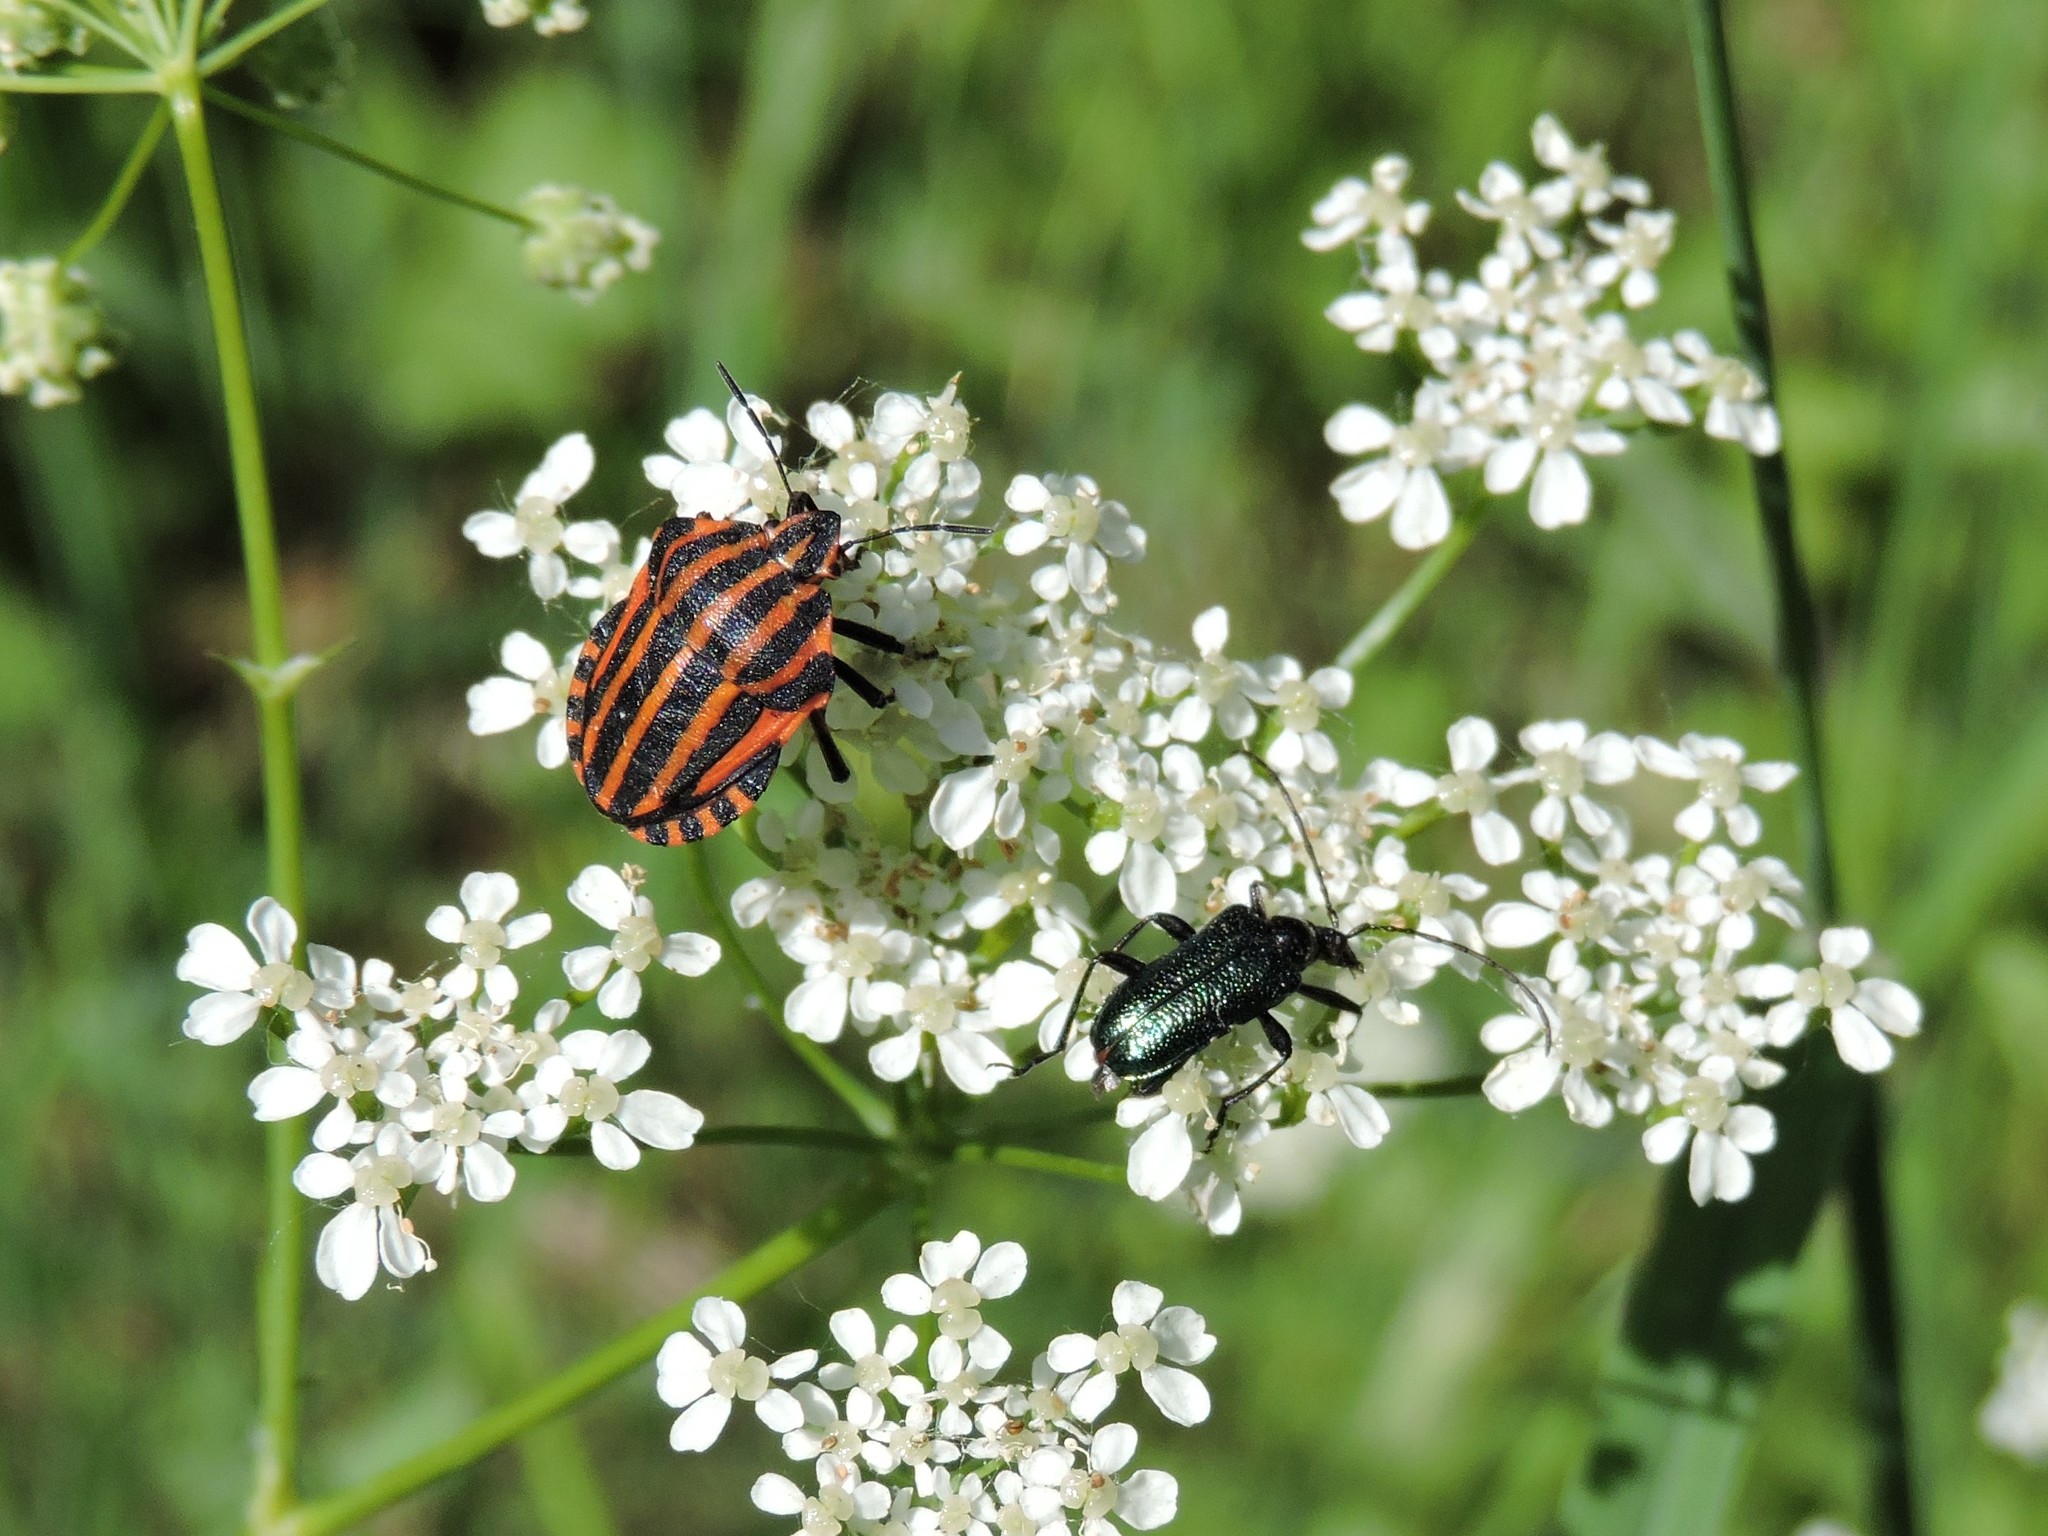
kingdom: Animalia
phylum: Arthropoda
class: Insecta
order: Hemiptera
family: Pentatomidae
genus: Graphosoma
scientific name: Graphosoma italicum
